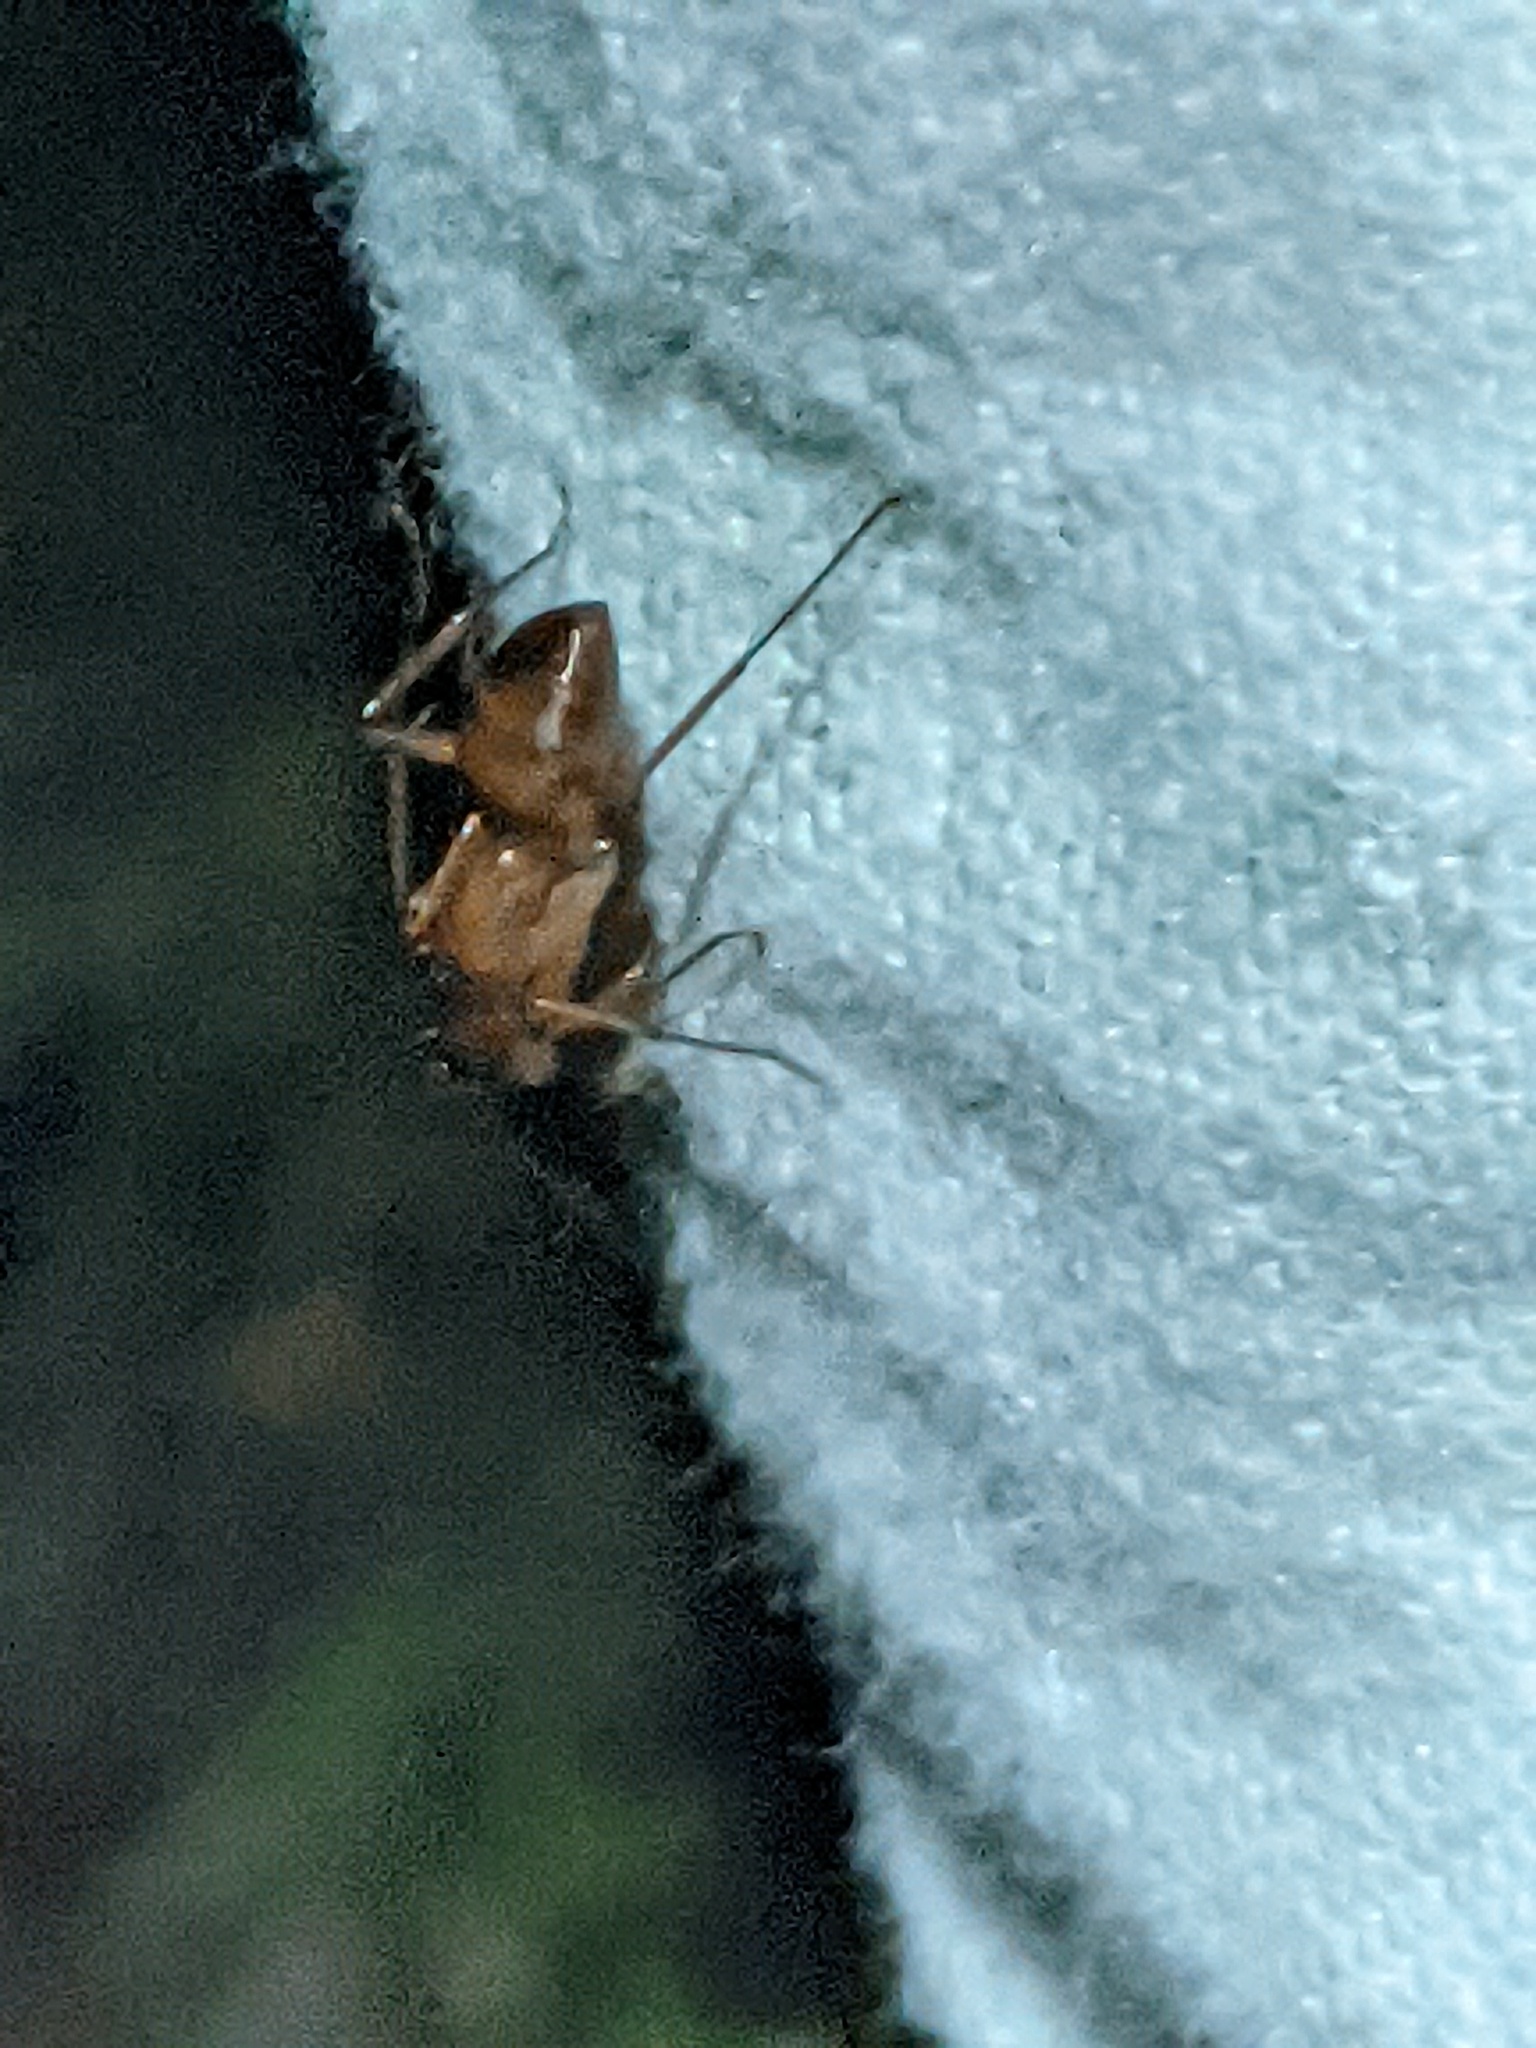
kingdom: Animalia
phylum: Arthropoda
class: Insecta
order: Hymenoptera
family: Formicidae
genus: Camponotus
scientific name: Camponotus castaneus
